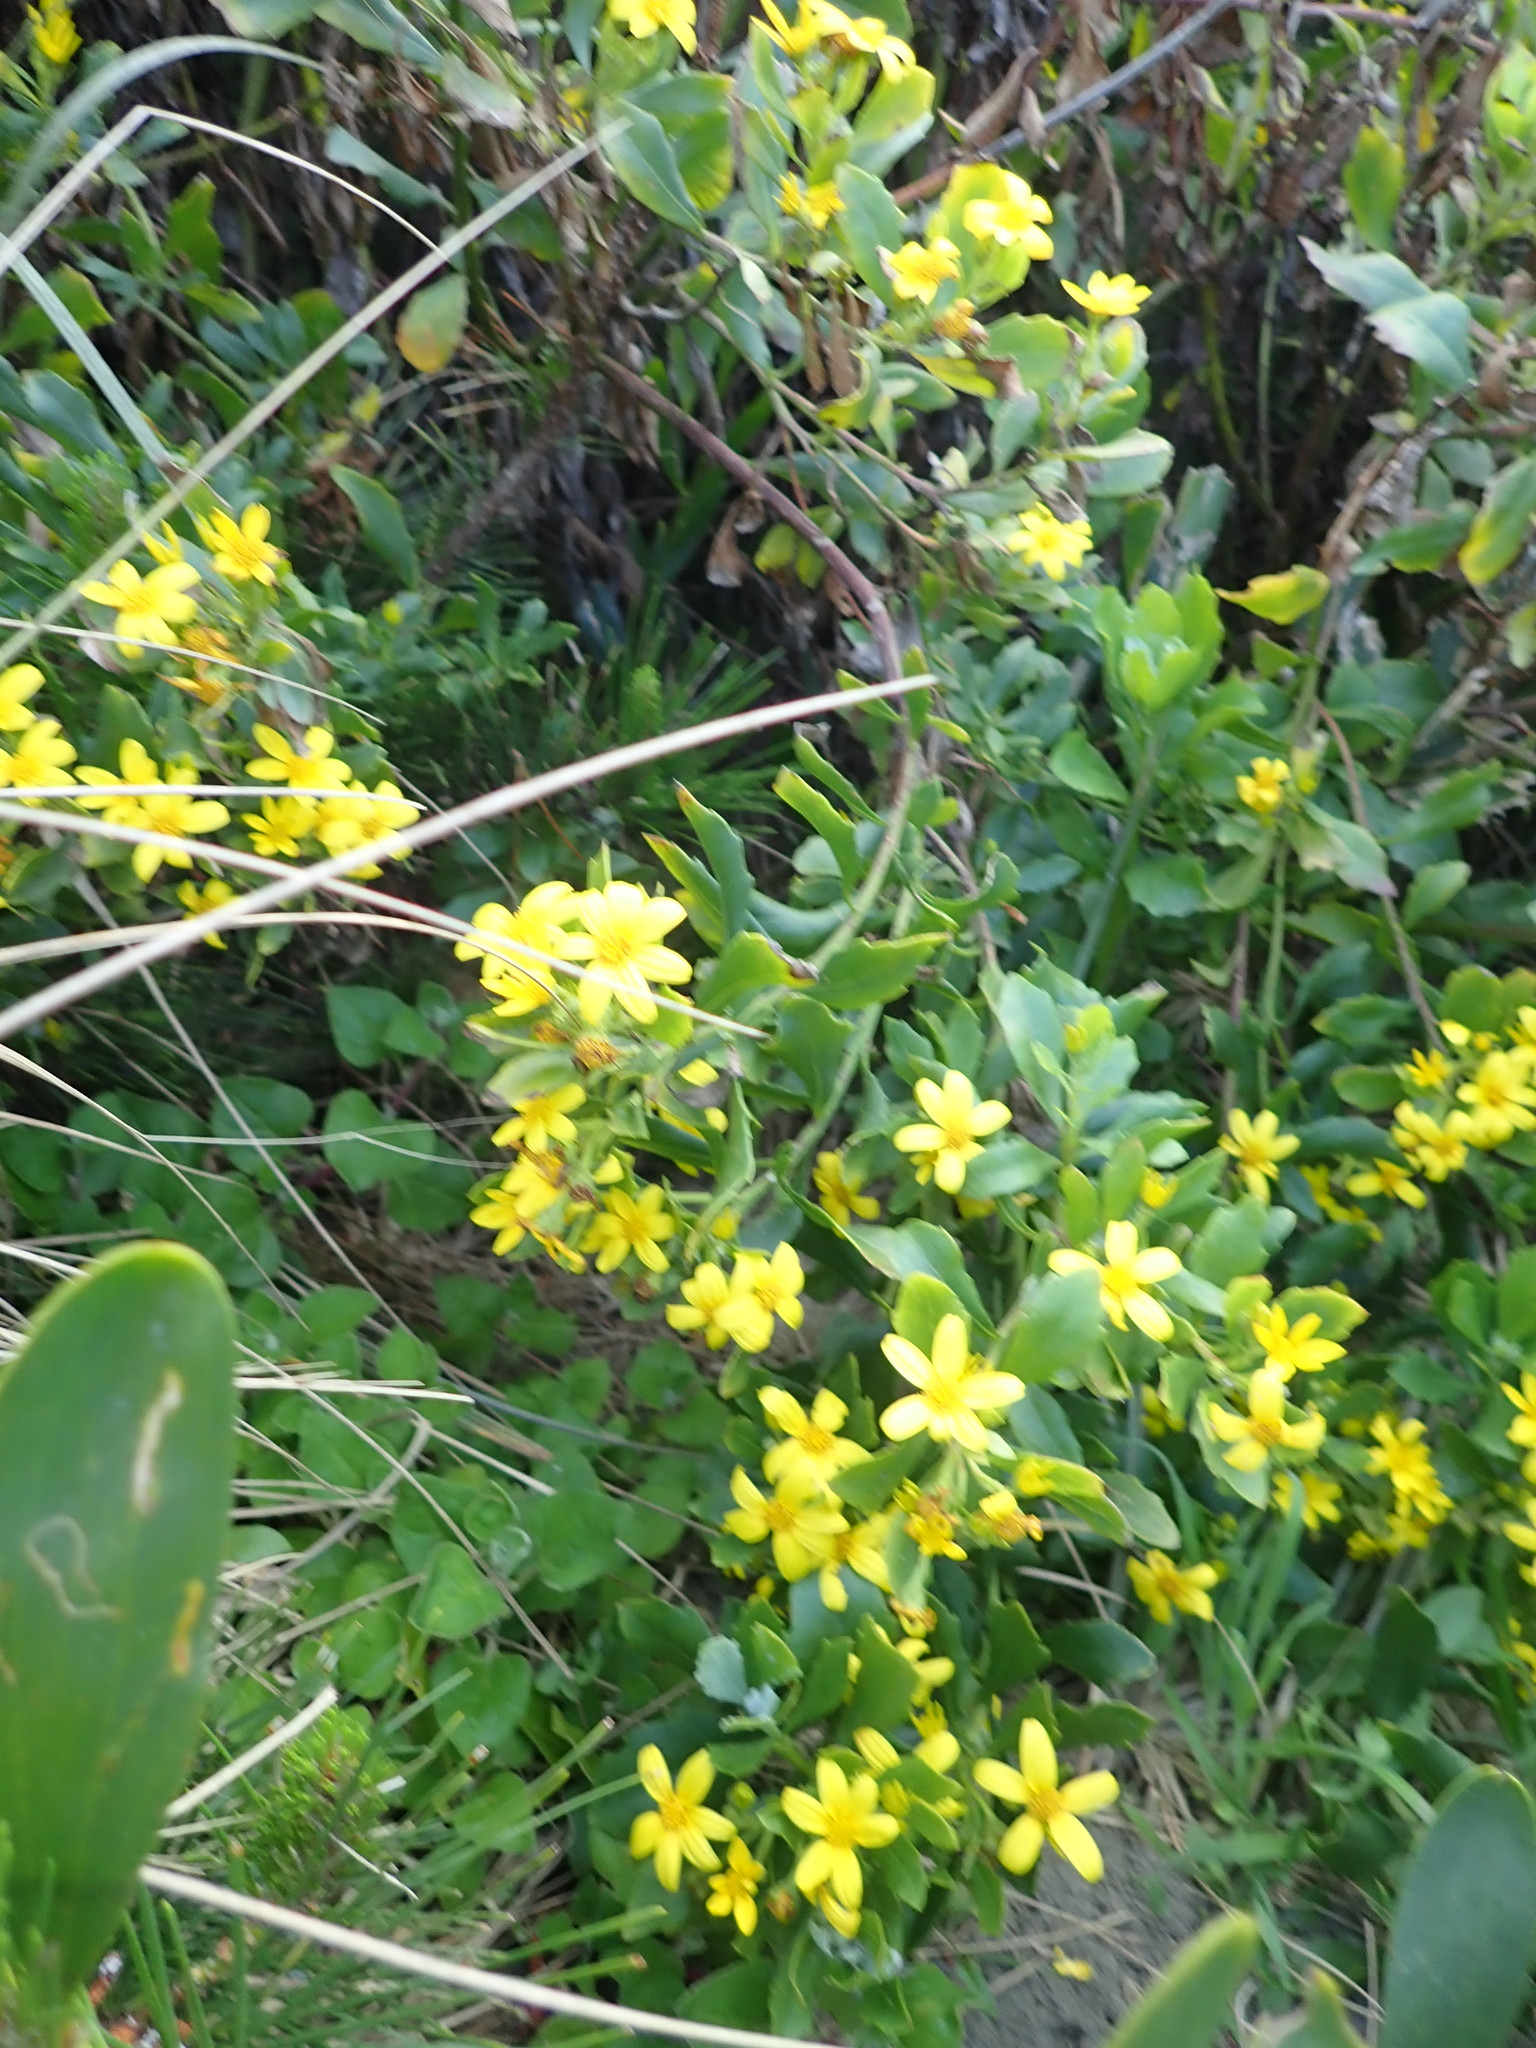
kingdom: Plantae
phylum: Tracheophyta
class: Magnoliopsida
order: Asterales
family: Asteraceae
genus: Osteospermum
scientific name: Osteospermum moniliferum
